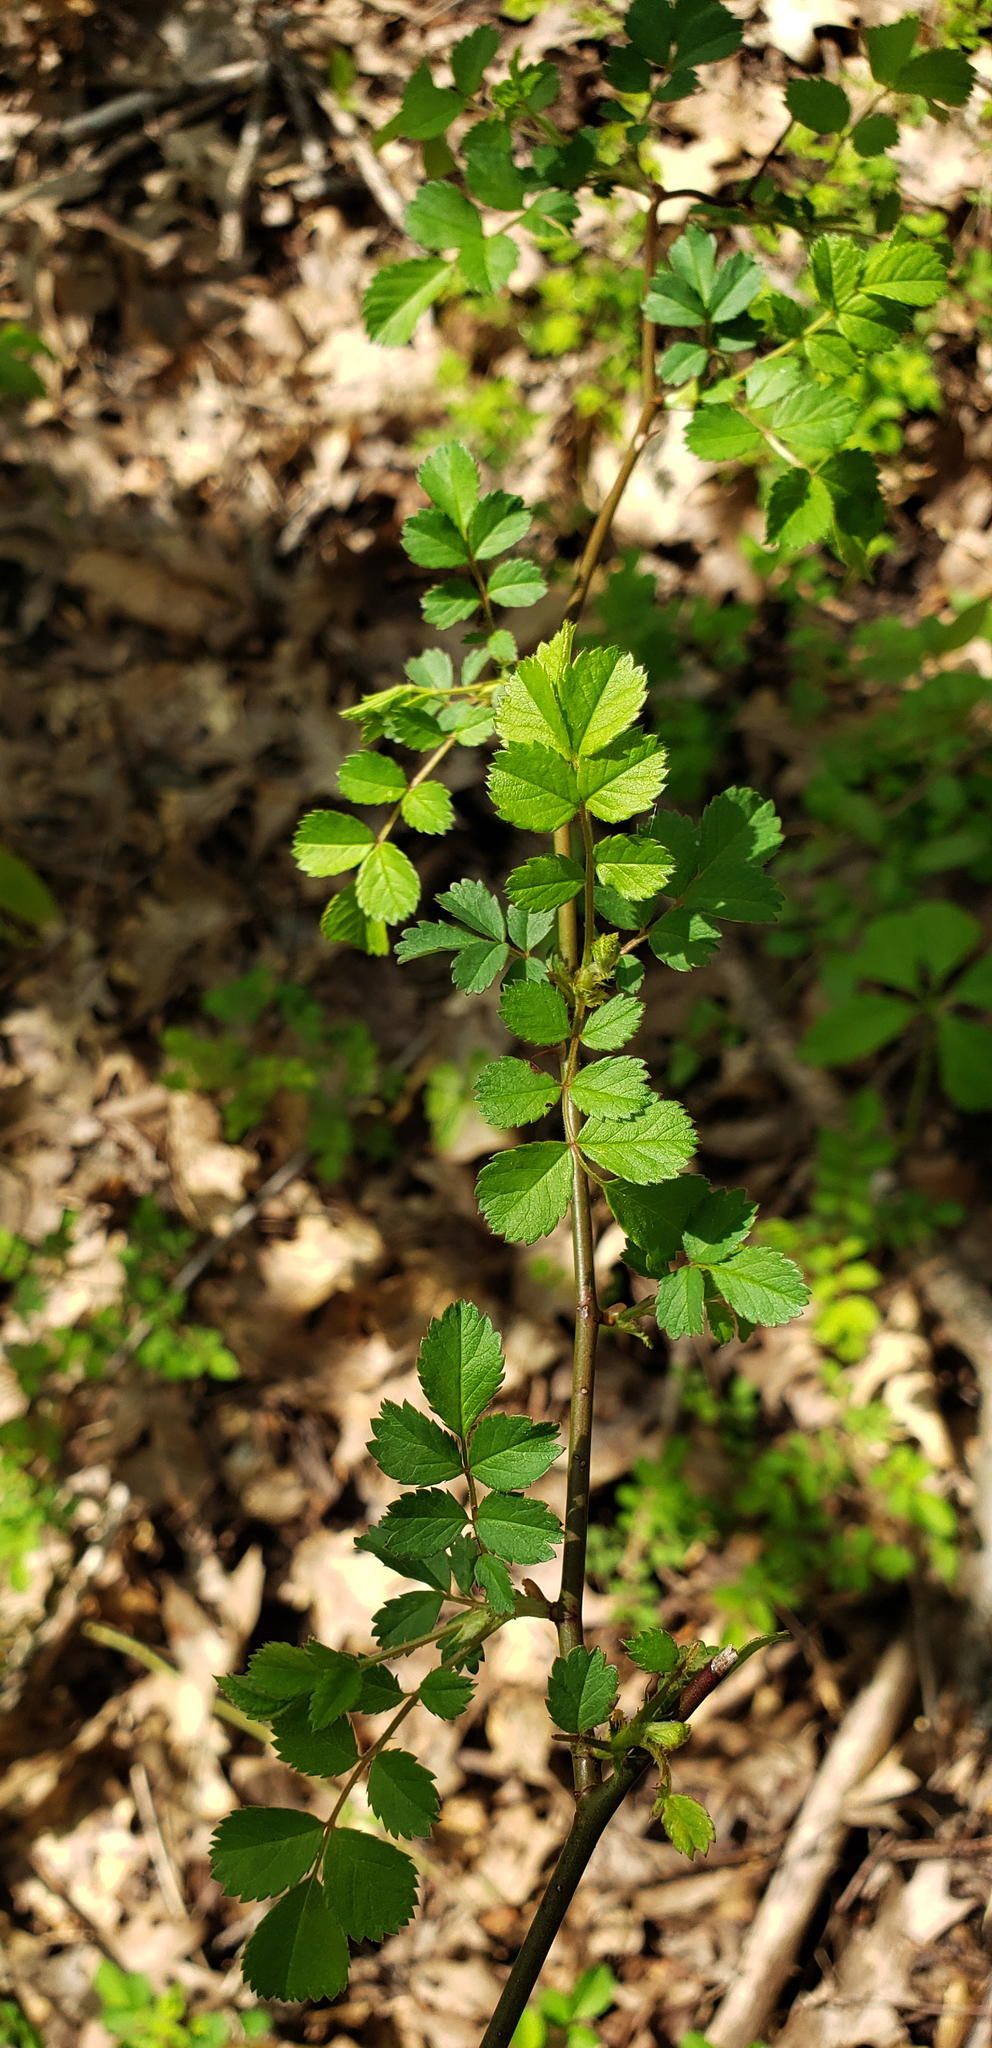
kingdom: Plantae
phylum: Tracheophyta
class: Magnoliopsida
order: Rosales
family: Rosaceae
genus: Rosa
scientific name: Rosa multiflora
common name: Multiflora rose
